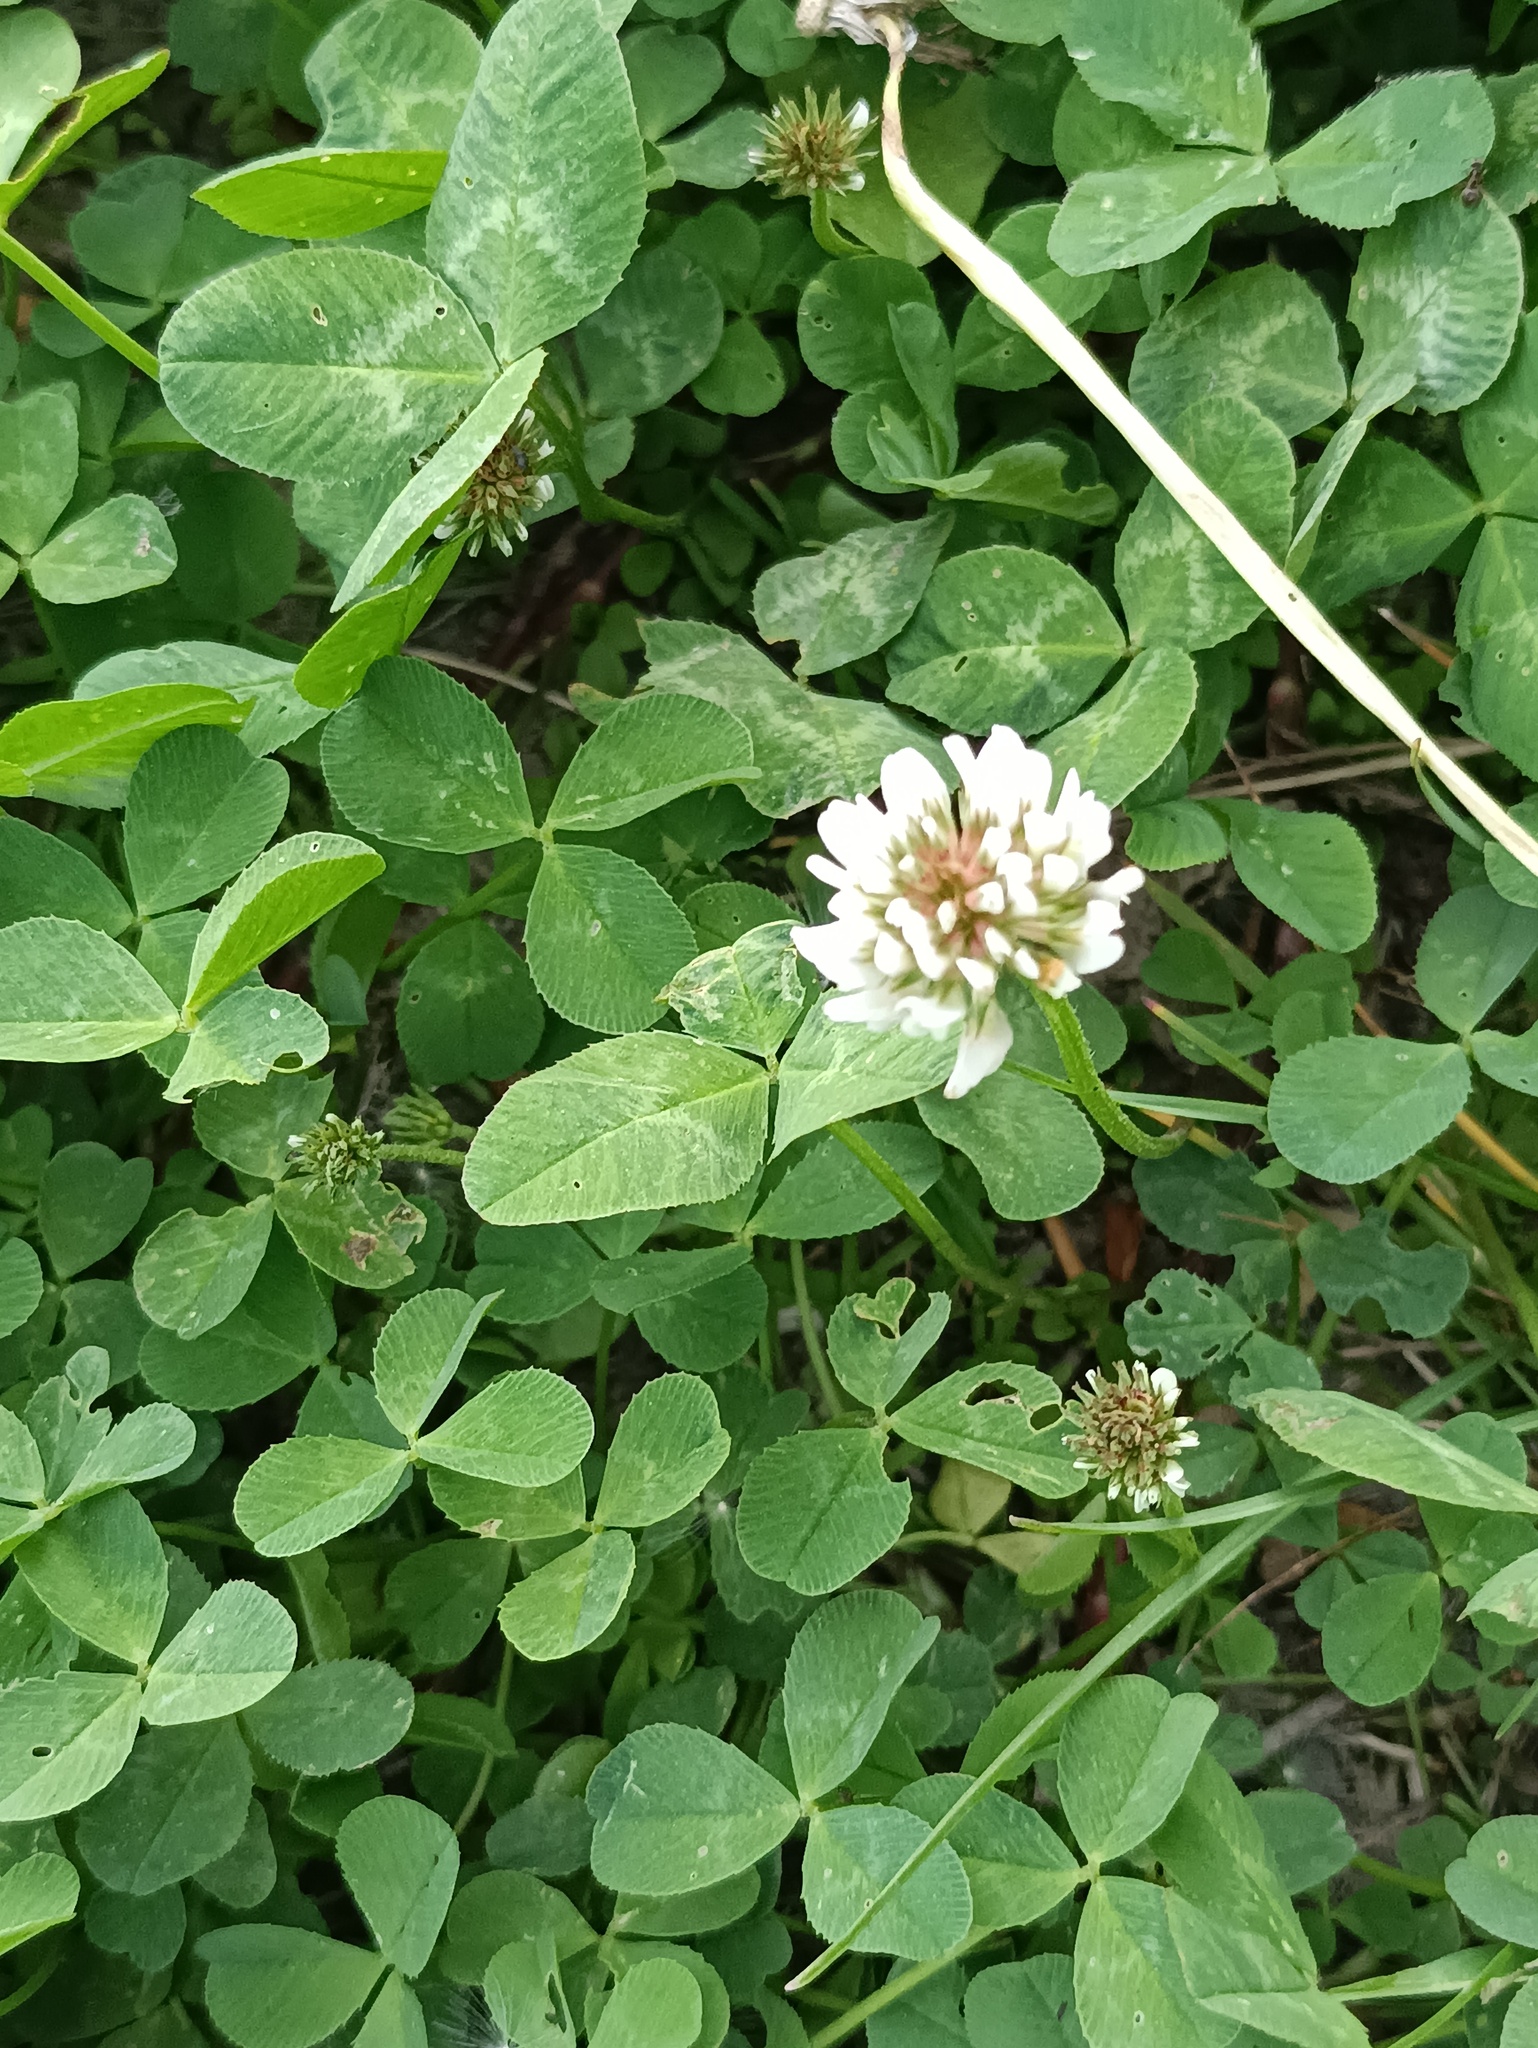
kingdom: Plantae
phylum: Tracheophyta
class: Magnoliopsida
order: Fabales
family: Fabaceae
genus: Trifolium
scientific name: Trifolium repens
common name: White clover
